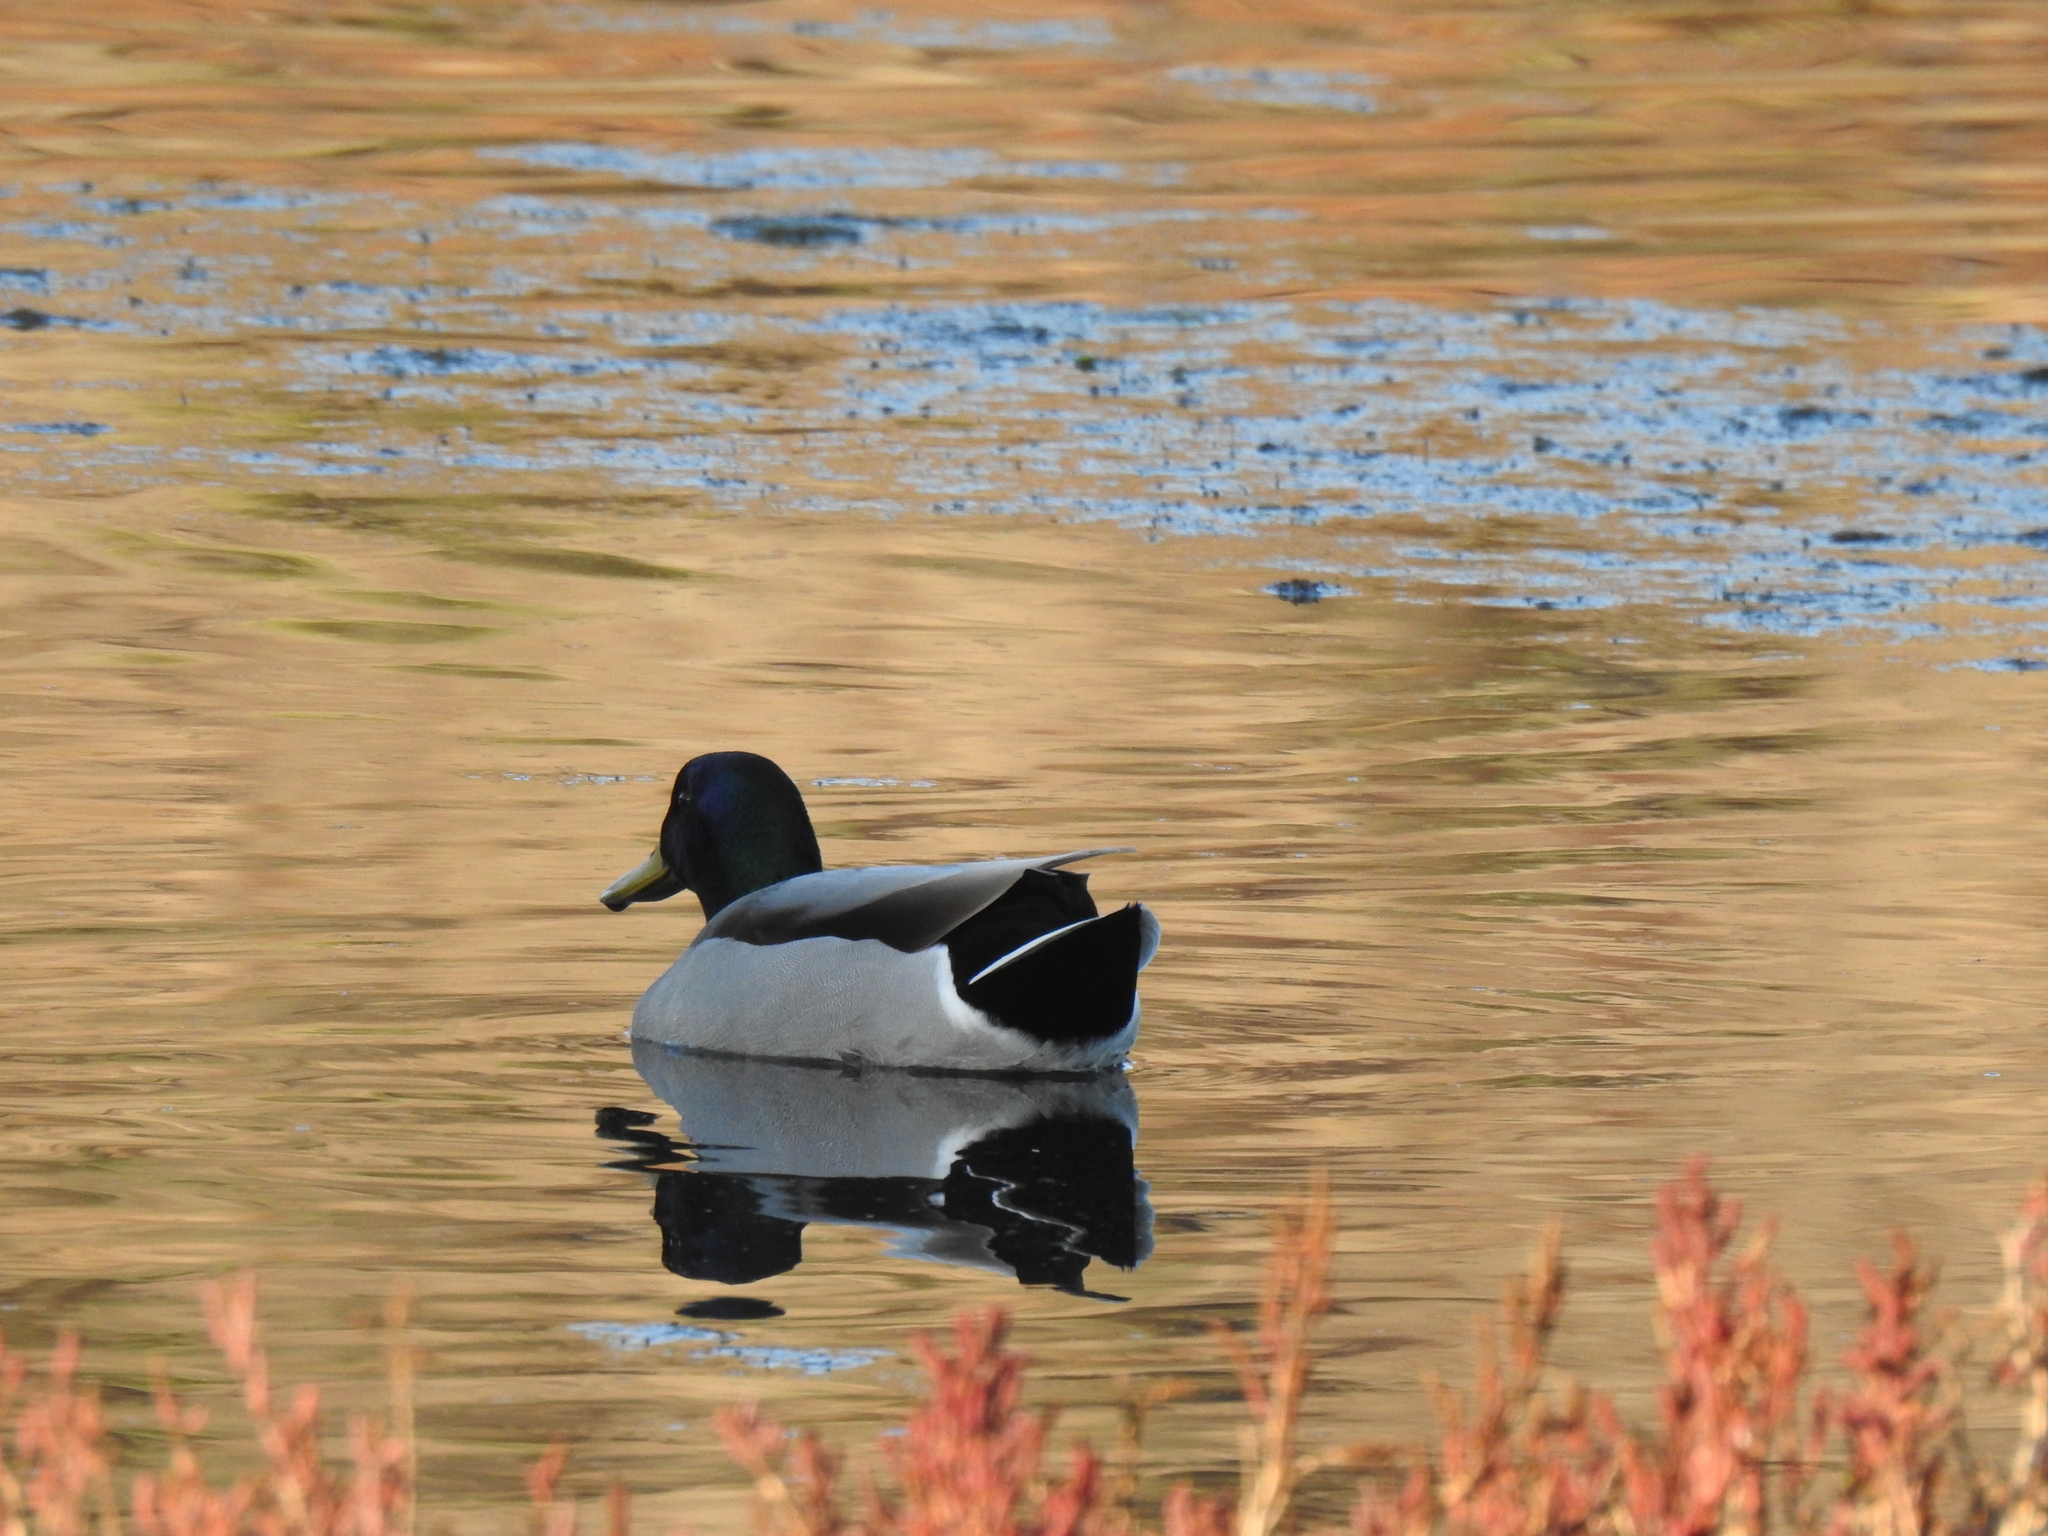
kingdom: Animalia
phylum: Chordata
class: Aves
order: Anseriformes
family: Anatidae
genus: Anas
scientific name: Anas platyrhynchos
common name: Mallard
